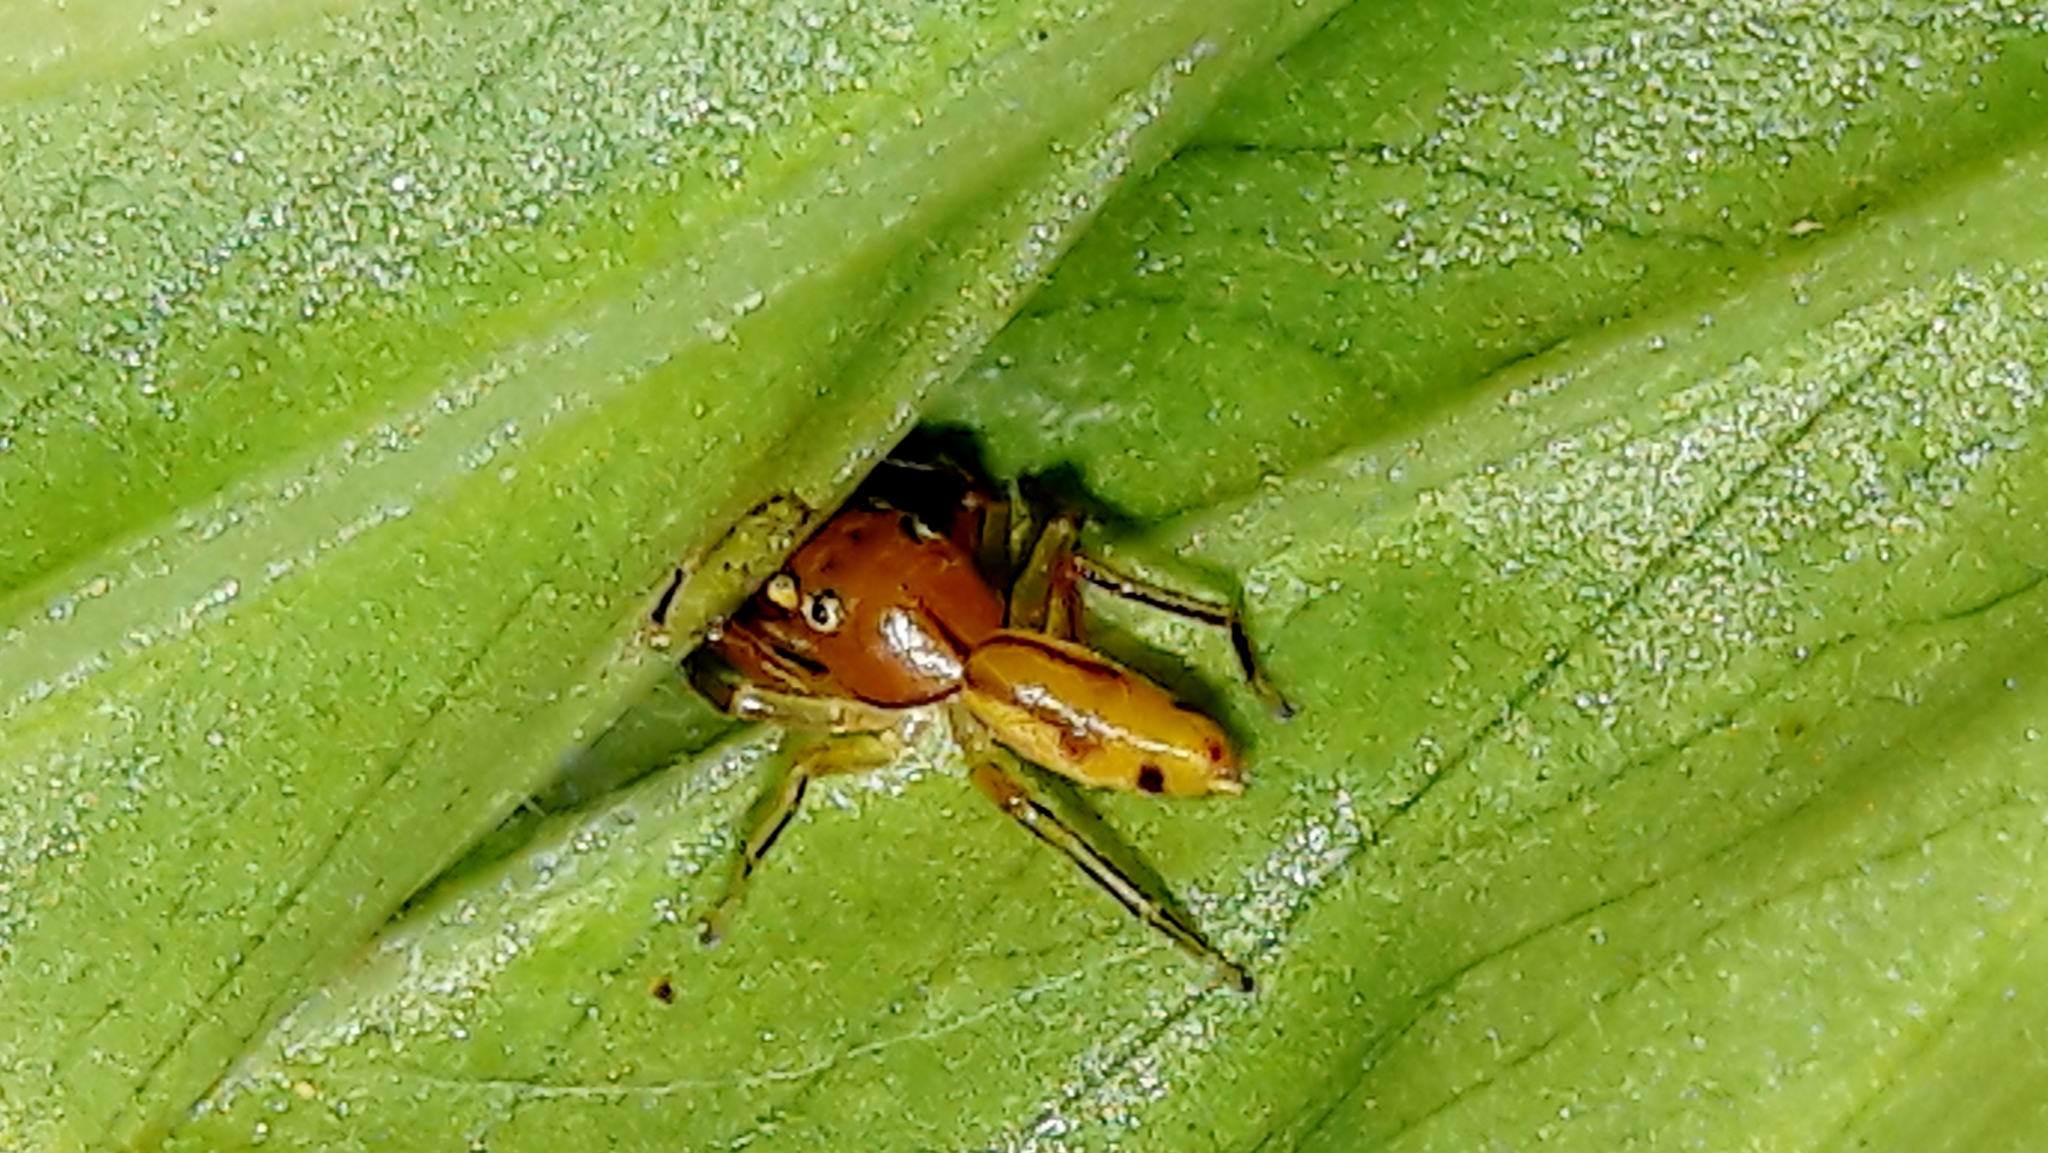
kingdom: Animalia
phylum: Arthropoda
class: Arachnida
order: Araneae
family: Salticidae
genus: Gypogyna
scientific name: Gypogyna forceps
